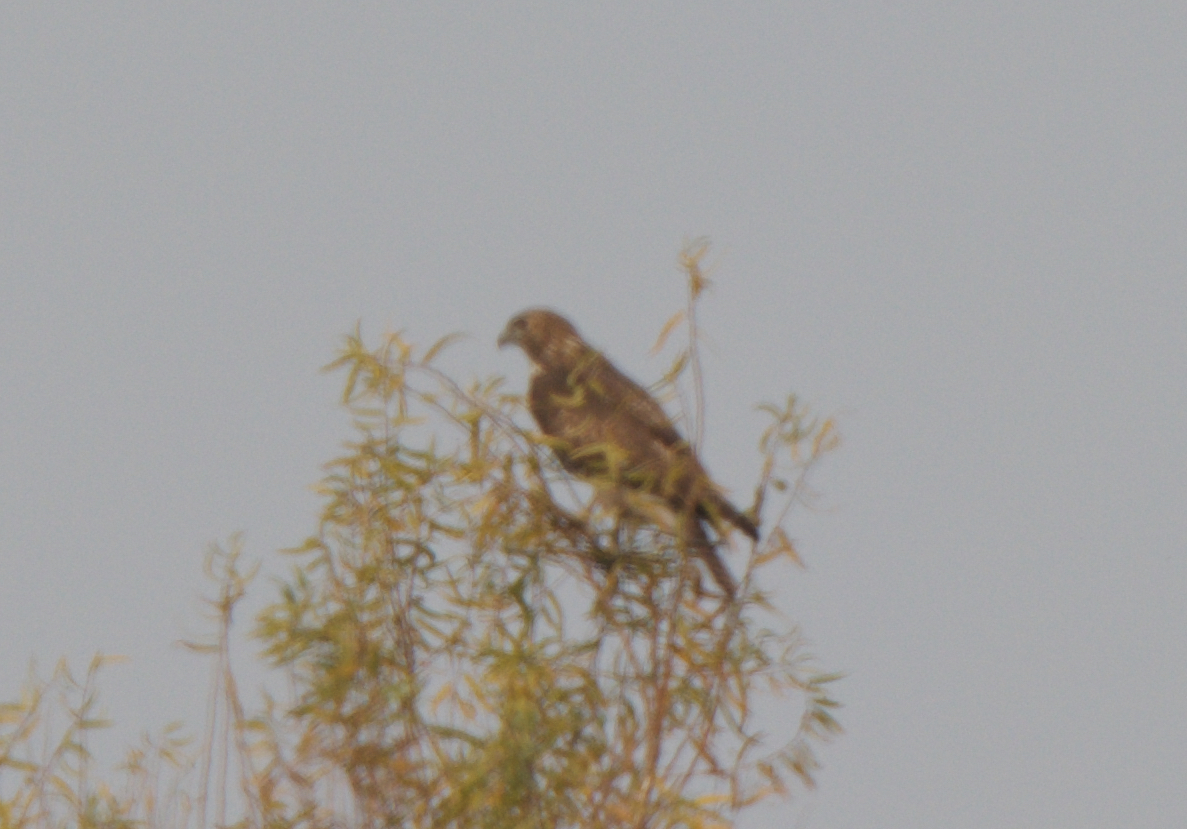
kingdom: Animalia
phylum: Chordata
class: Aves
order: Accipitriformes
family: Accipitridae
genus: Buteo
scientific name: Buteo jamaicensis
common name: Red-tailed hawk
